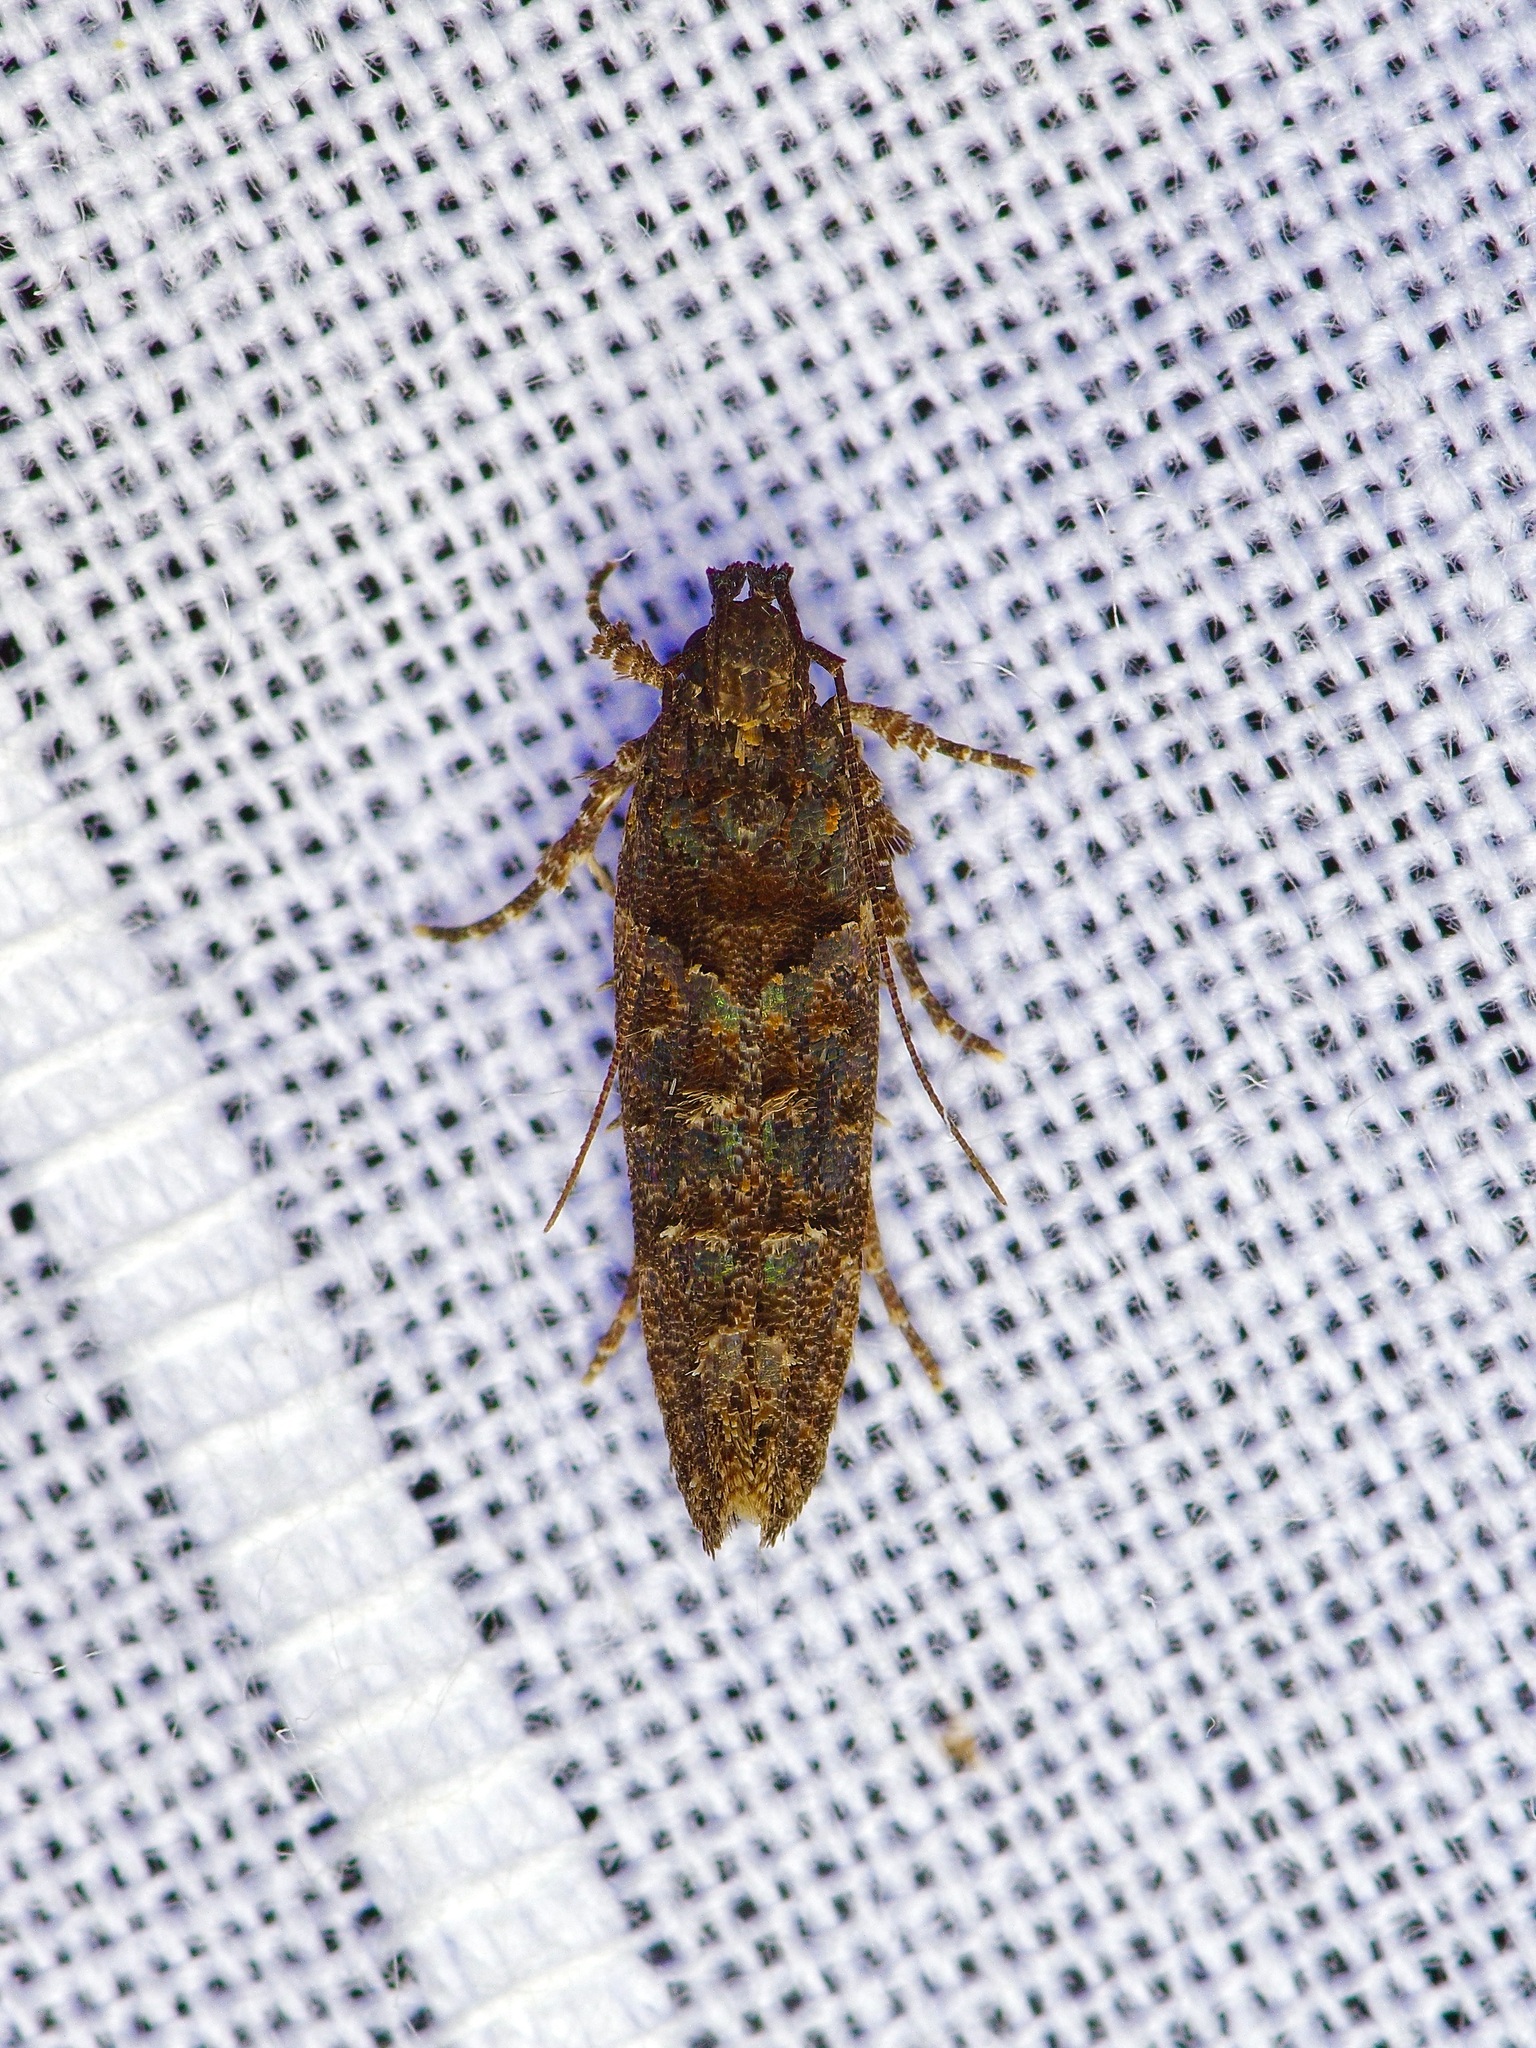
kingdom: Animalia
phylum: Arthropoda
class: Insecta
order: Lepidoptera
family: Gelechiidae
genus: Telphusa
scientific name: Telphusa perspicua
